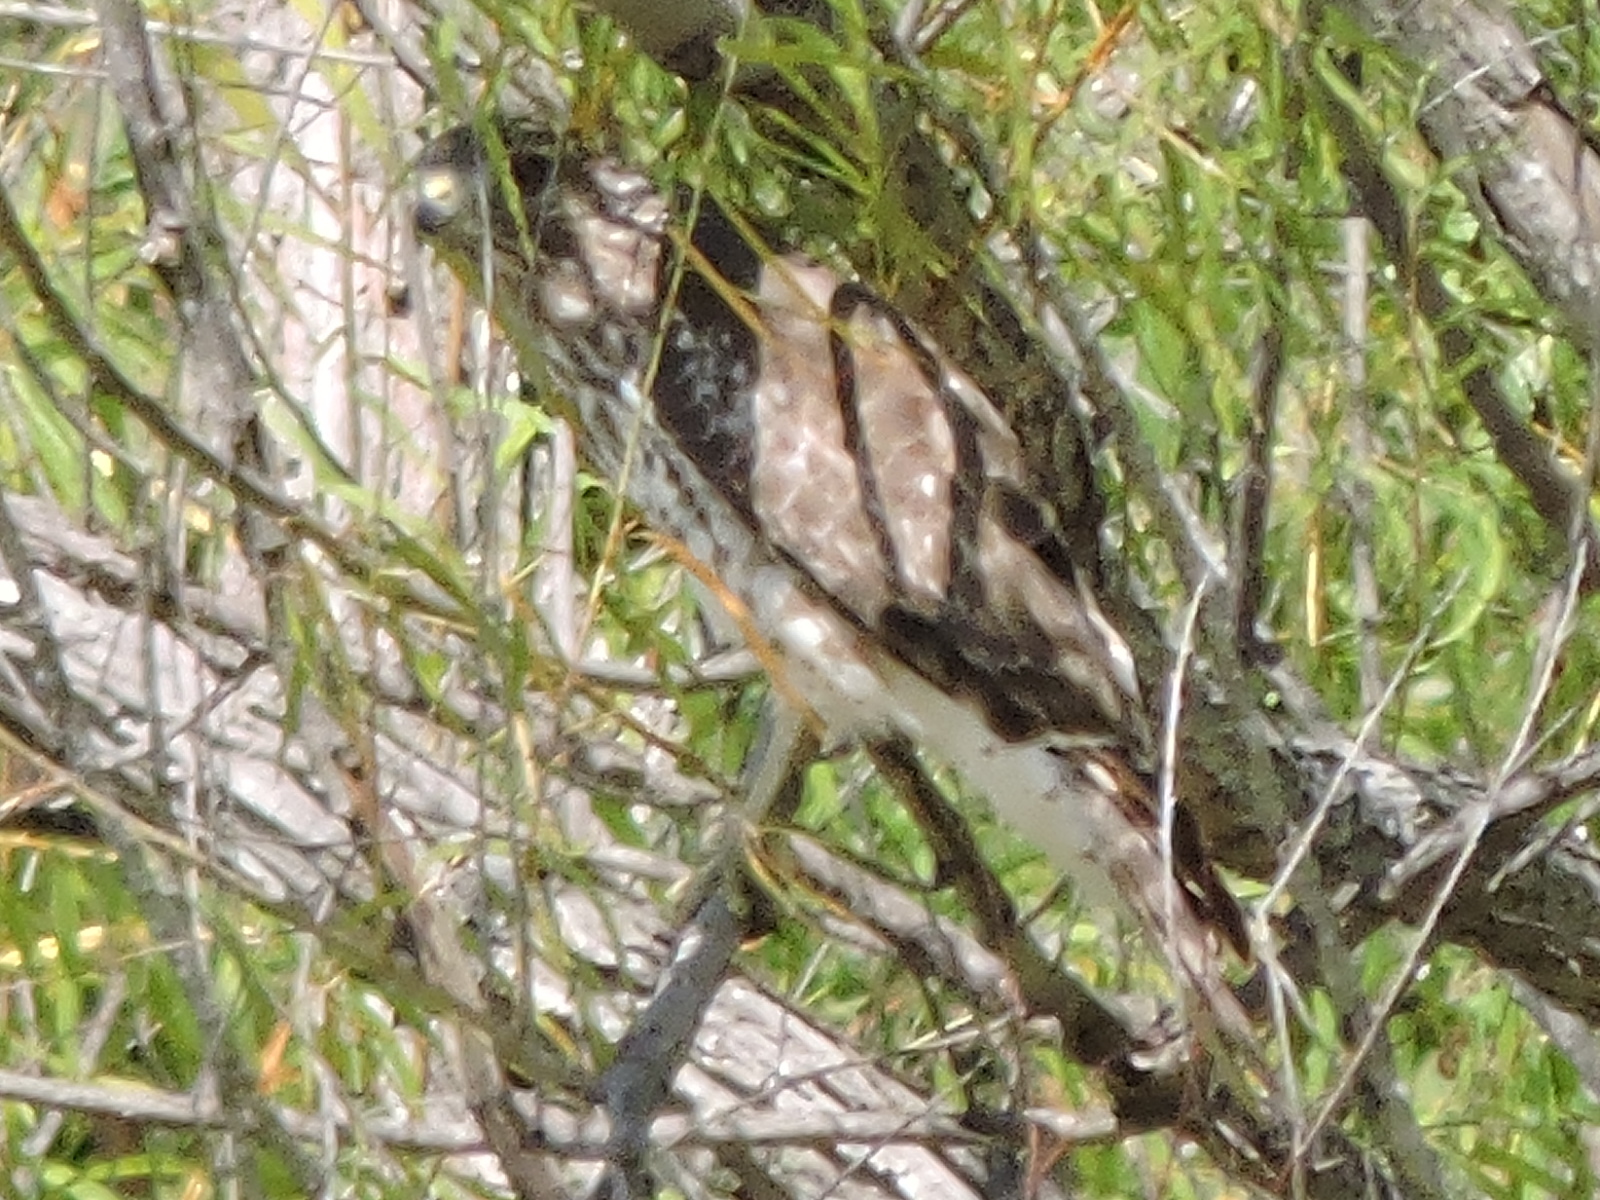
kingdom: Animalia
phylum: Chordata
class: Aves
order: Accipitriformes
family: Accipitridae
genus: Buteo
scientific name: Buteo jamaicensis
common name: Red-tailed hawk
